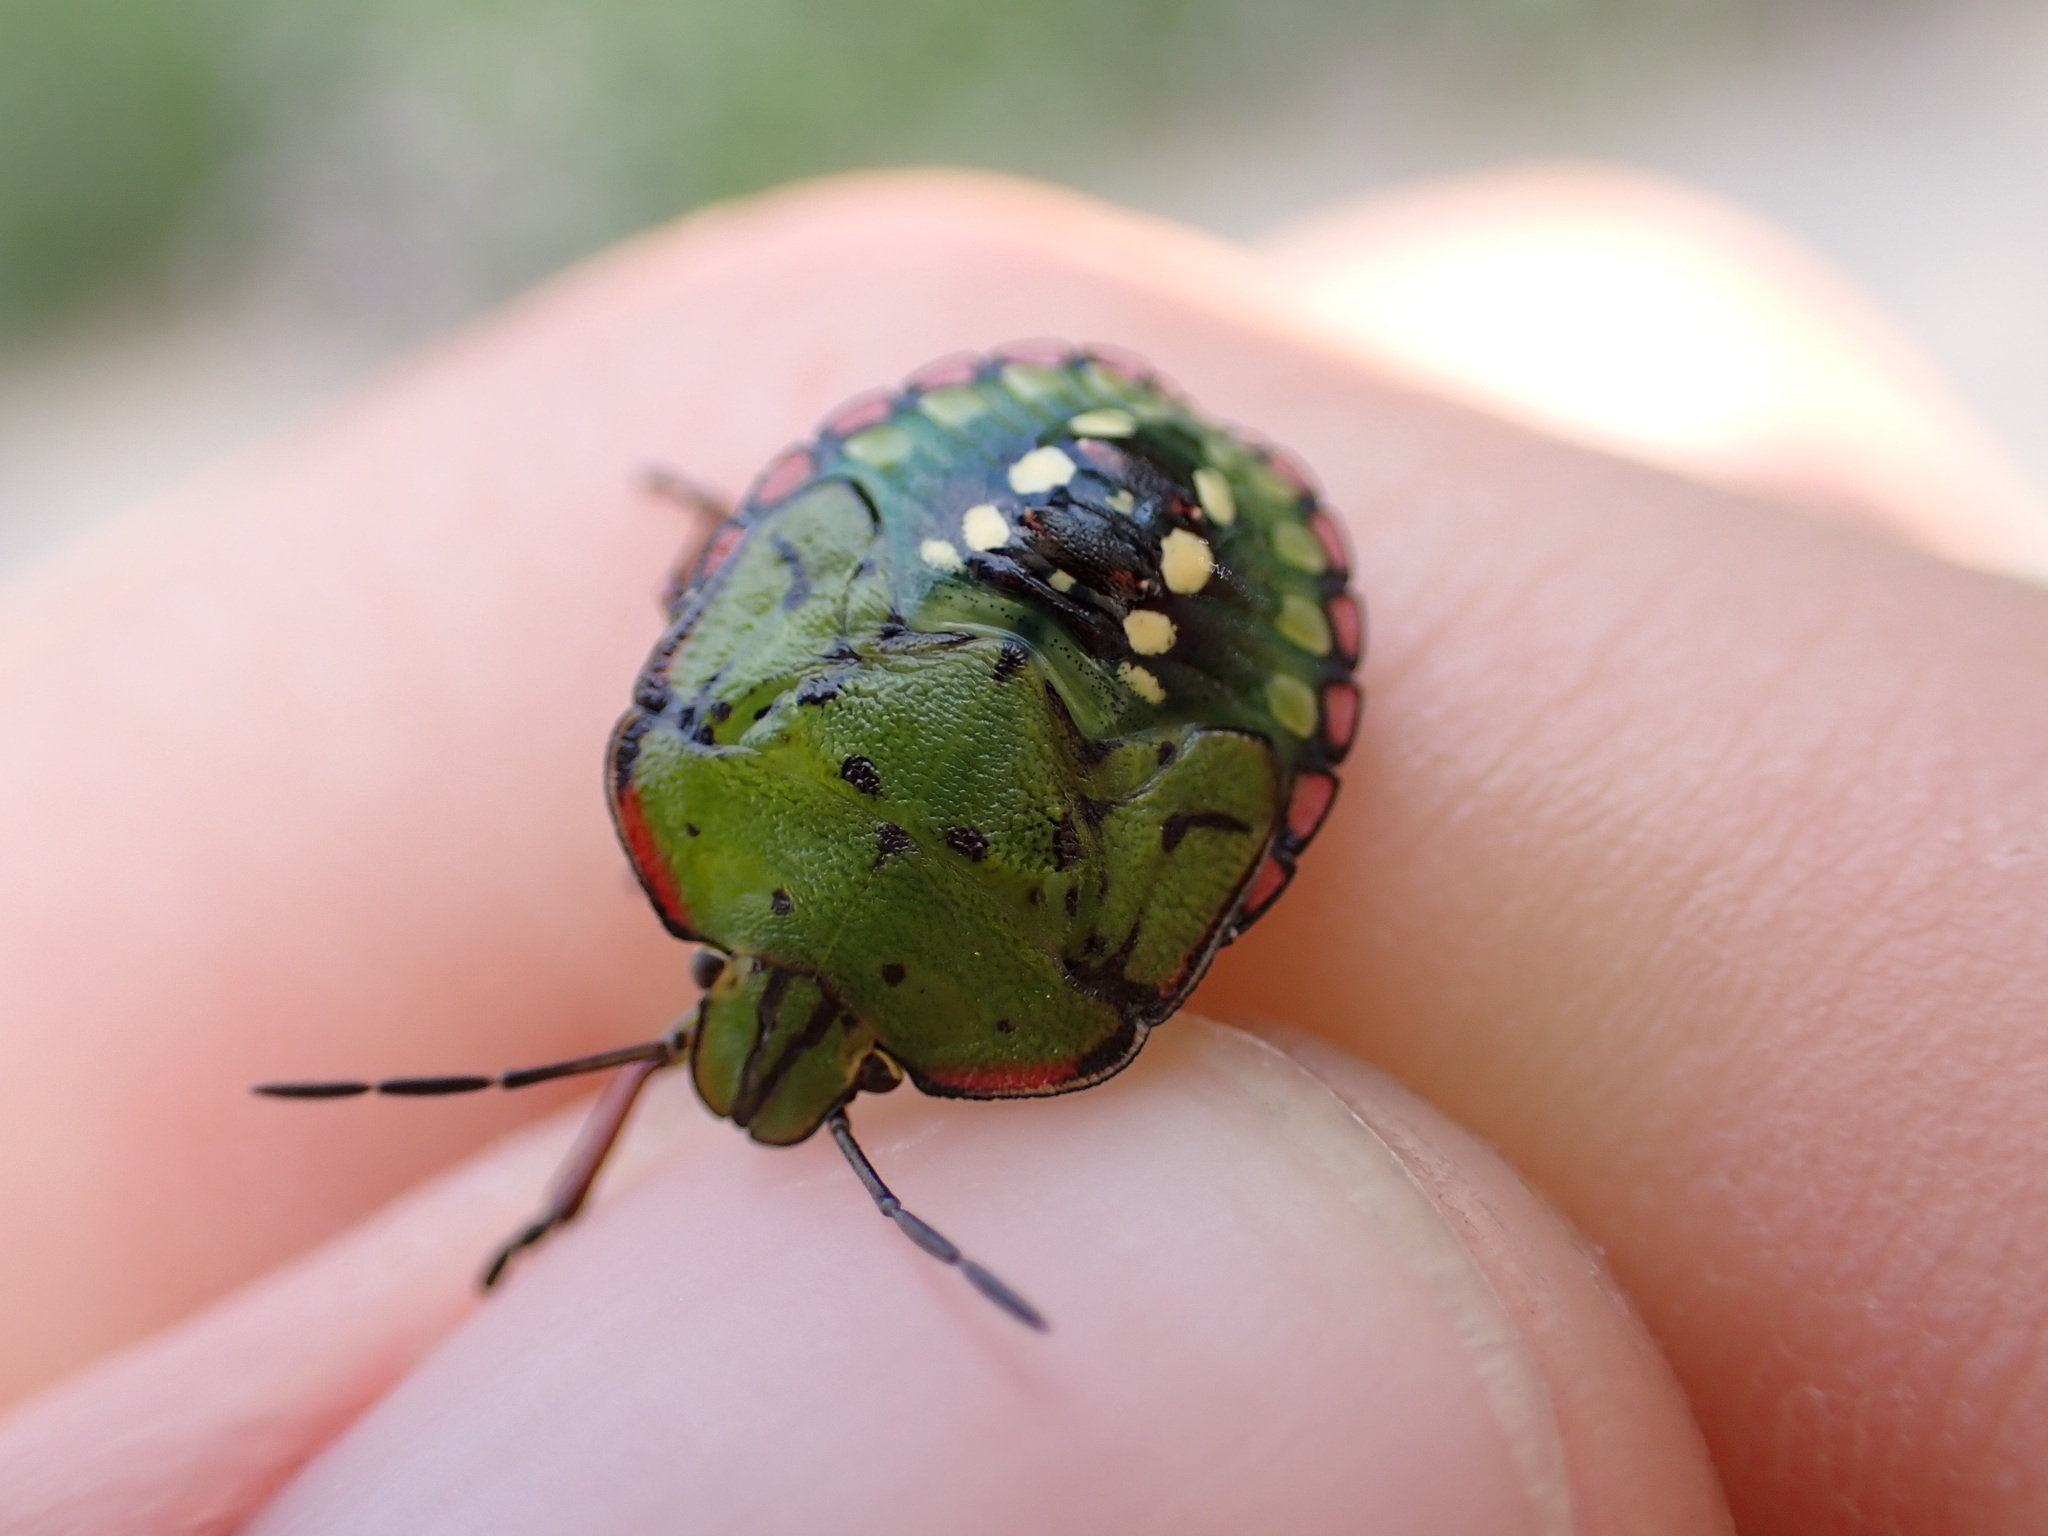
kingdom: Animalia
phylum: Arthropoda
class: Insecta
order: Hemiptera
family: Pentatomidae
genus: Nezara
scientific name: Nezara viridula
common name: Southern green stink bug
